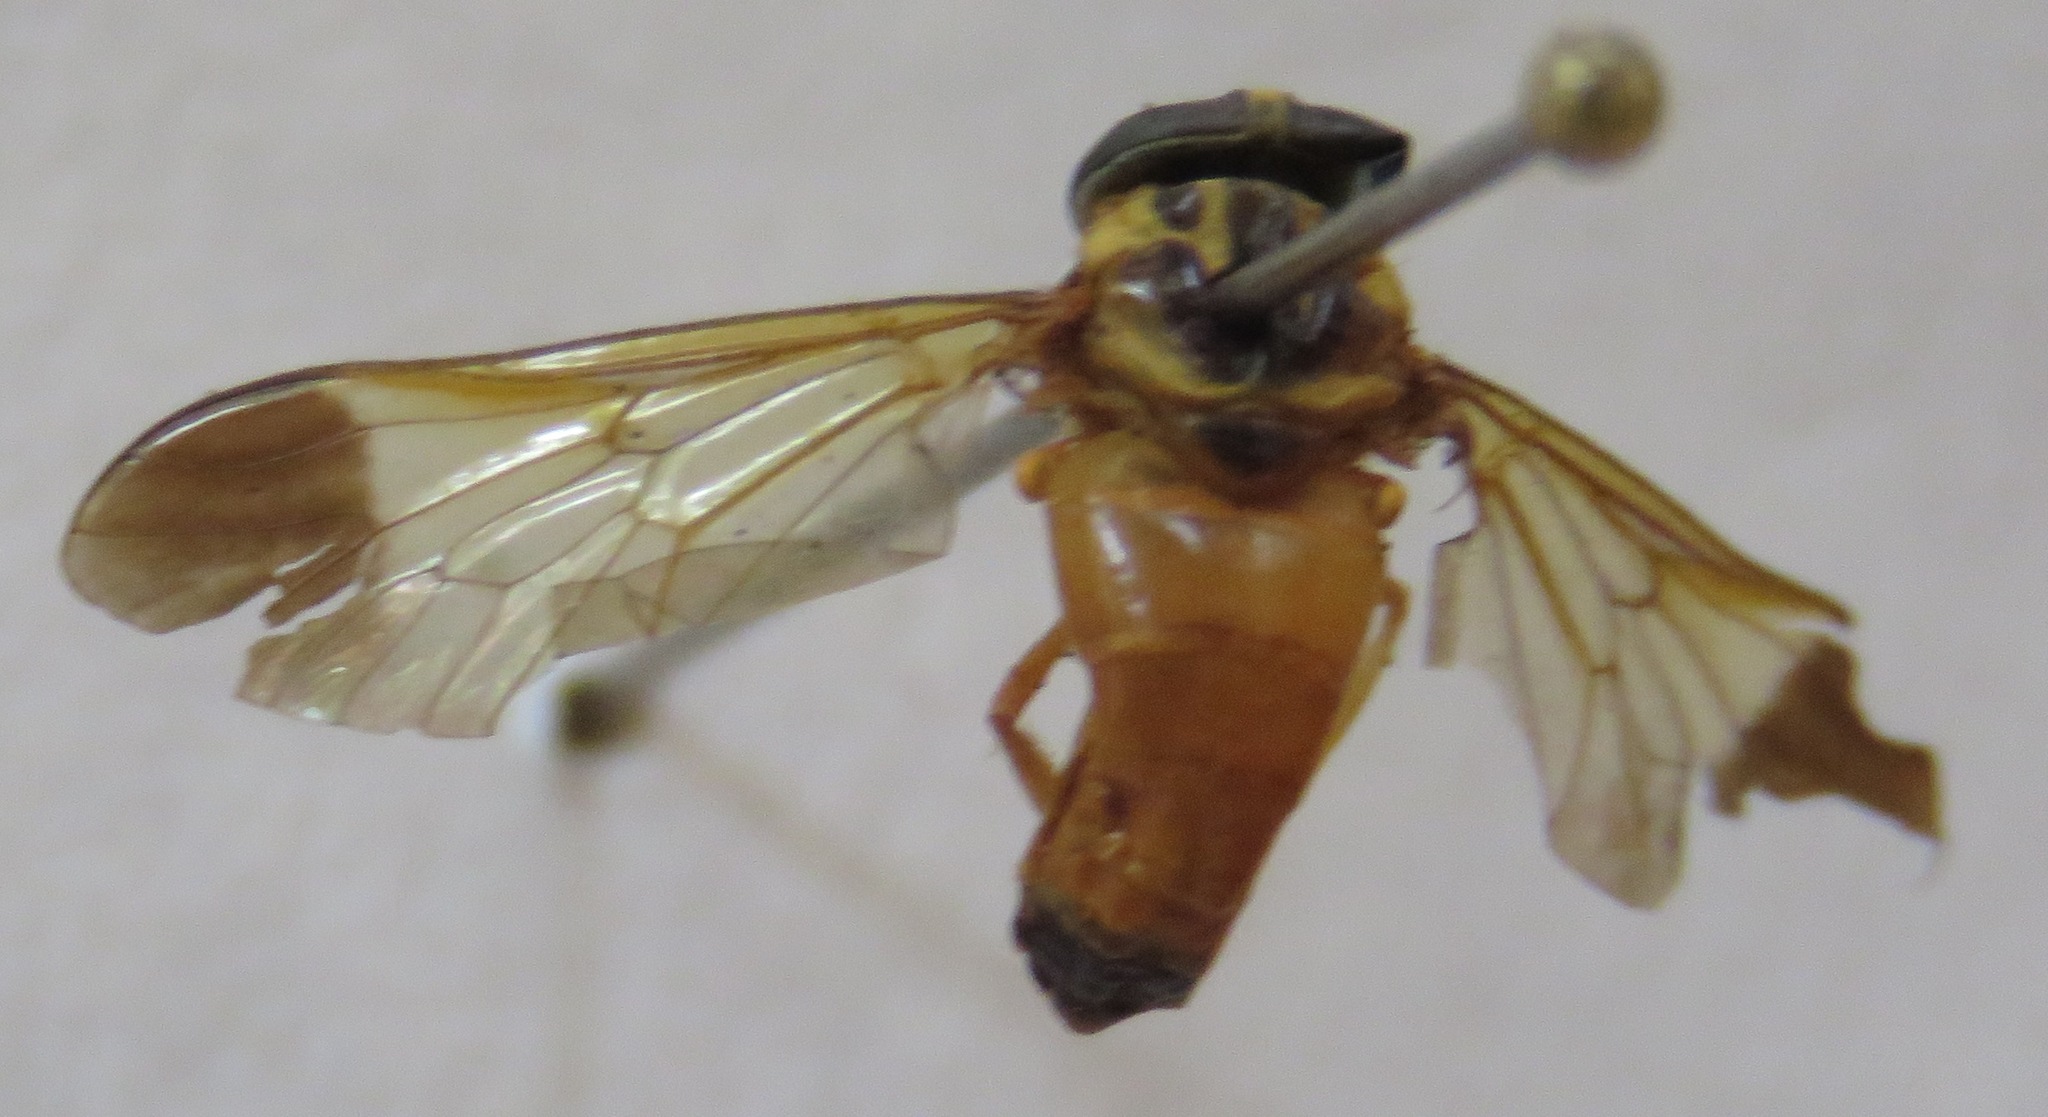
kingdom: Animalia
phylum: Arthropoda
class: Insecta
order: Diptera
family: Tabanidae
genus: Diachlorus
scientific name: Diachlorus jobbinsi
